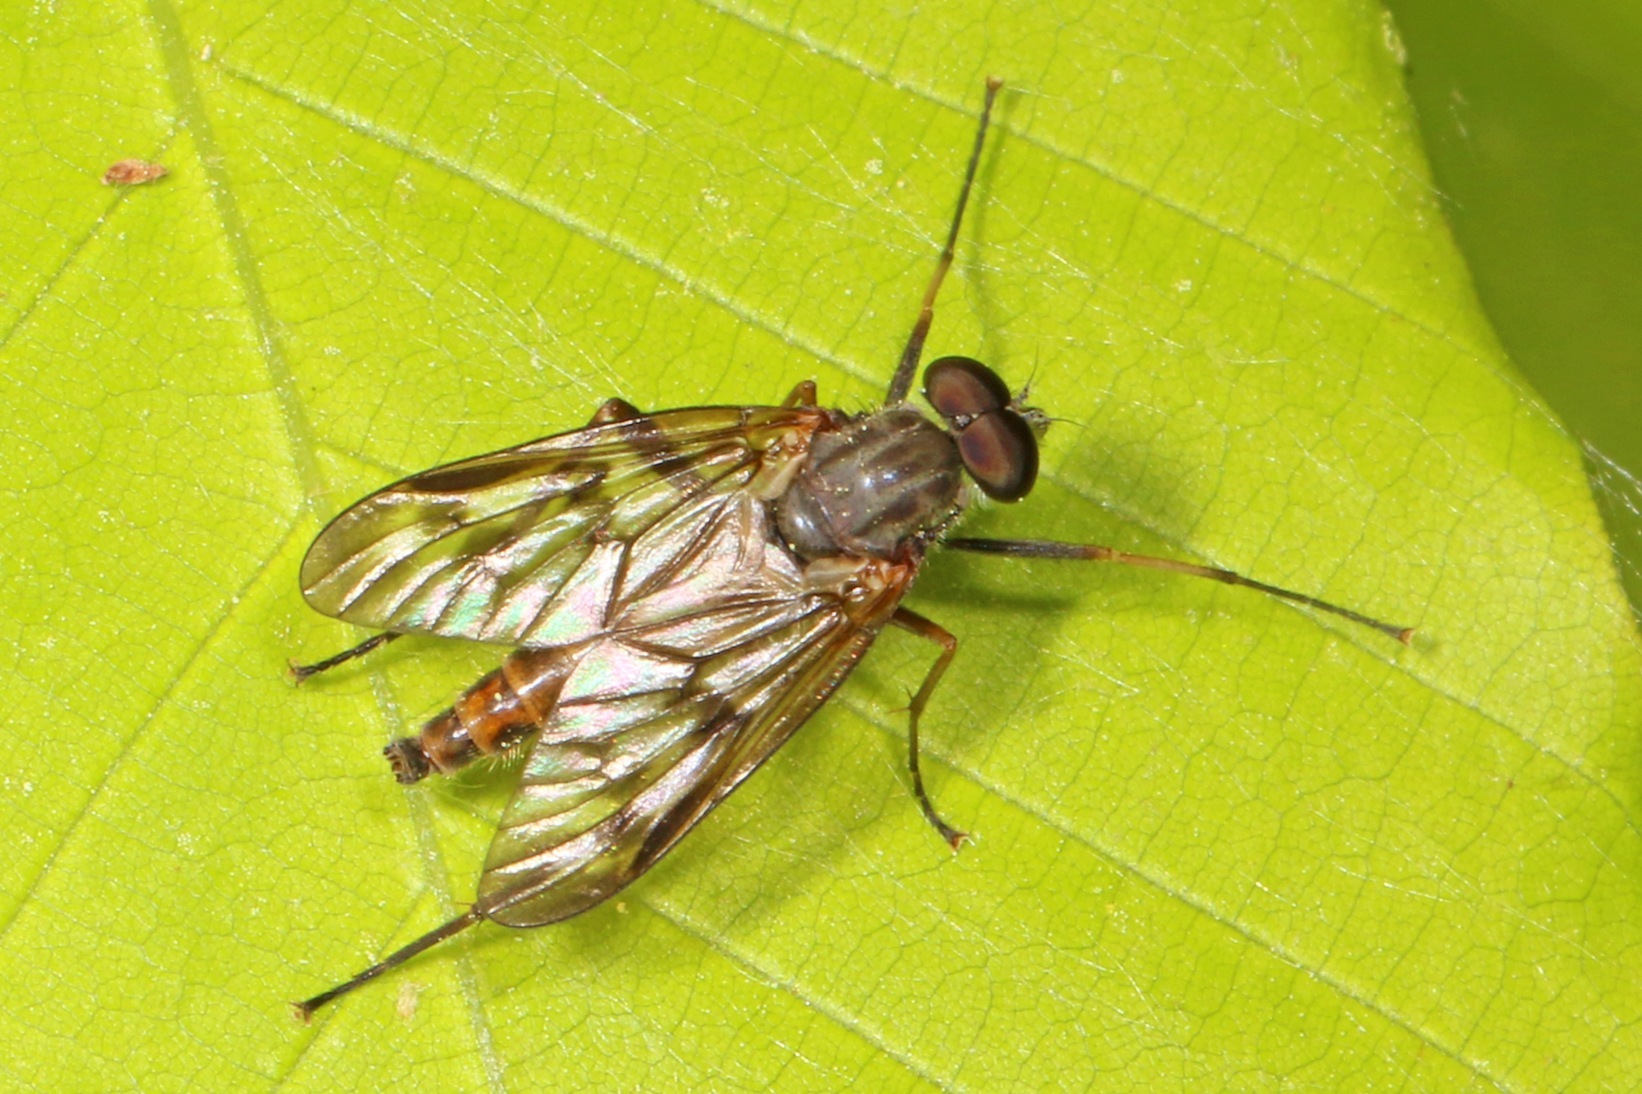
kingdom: Animalia
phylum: Arthropoda
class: Insecta
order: Diptera
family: Rhagionidae
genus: Rhagio
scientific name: Rhagio mystaceus
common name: Common snipe fly
